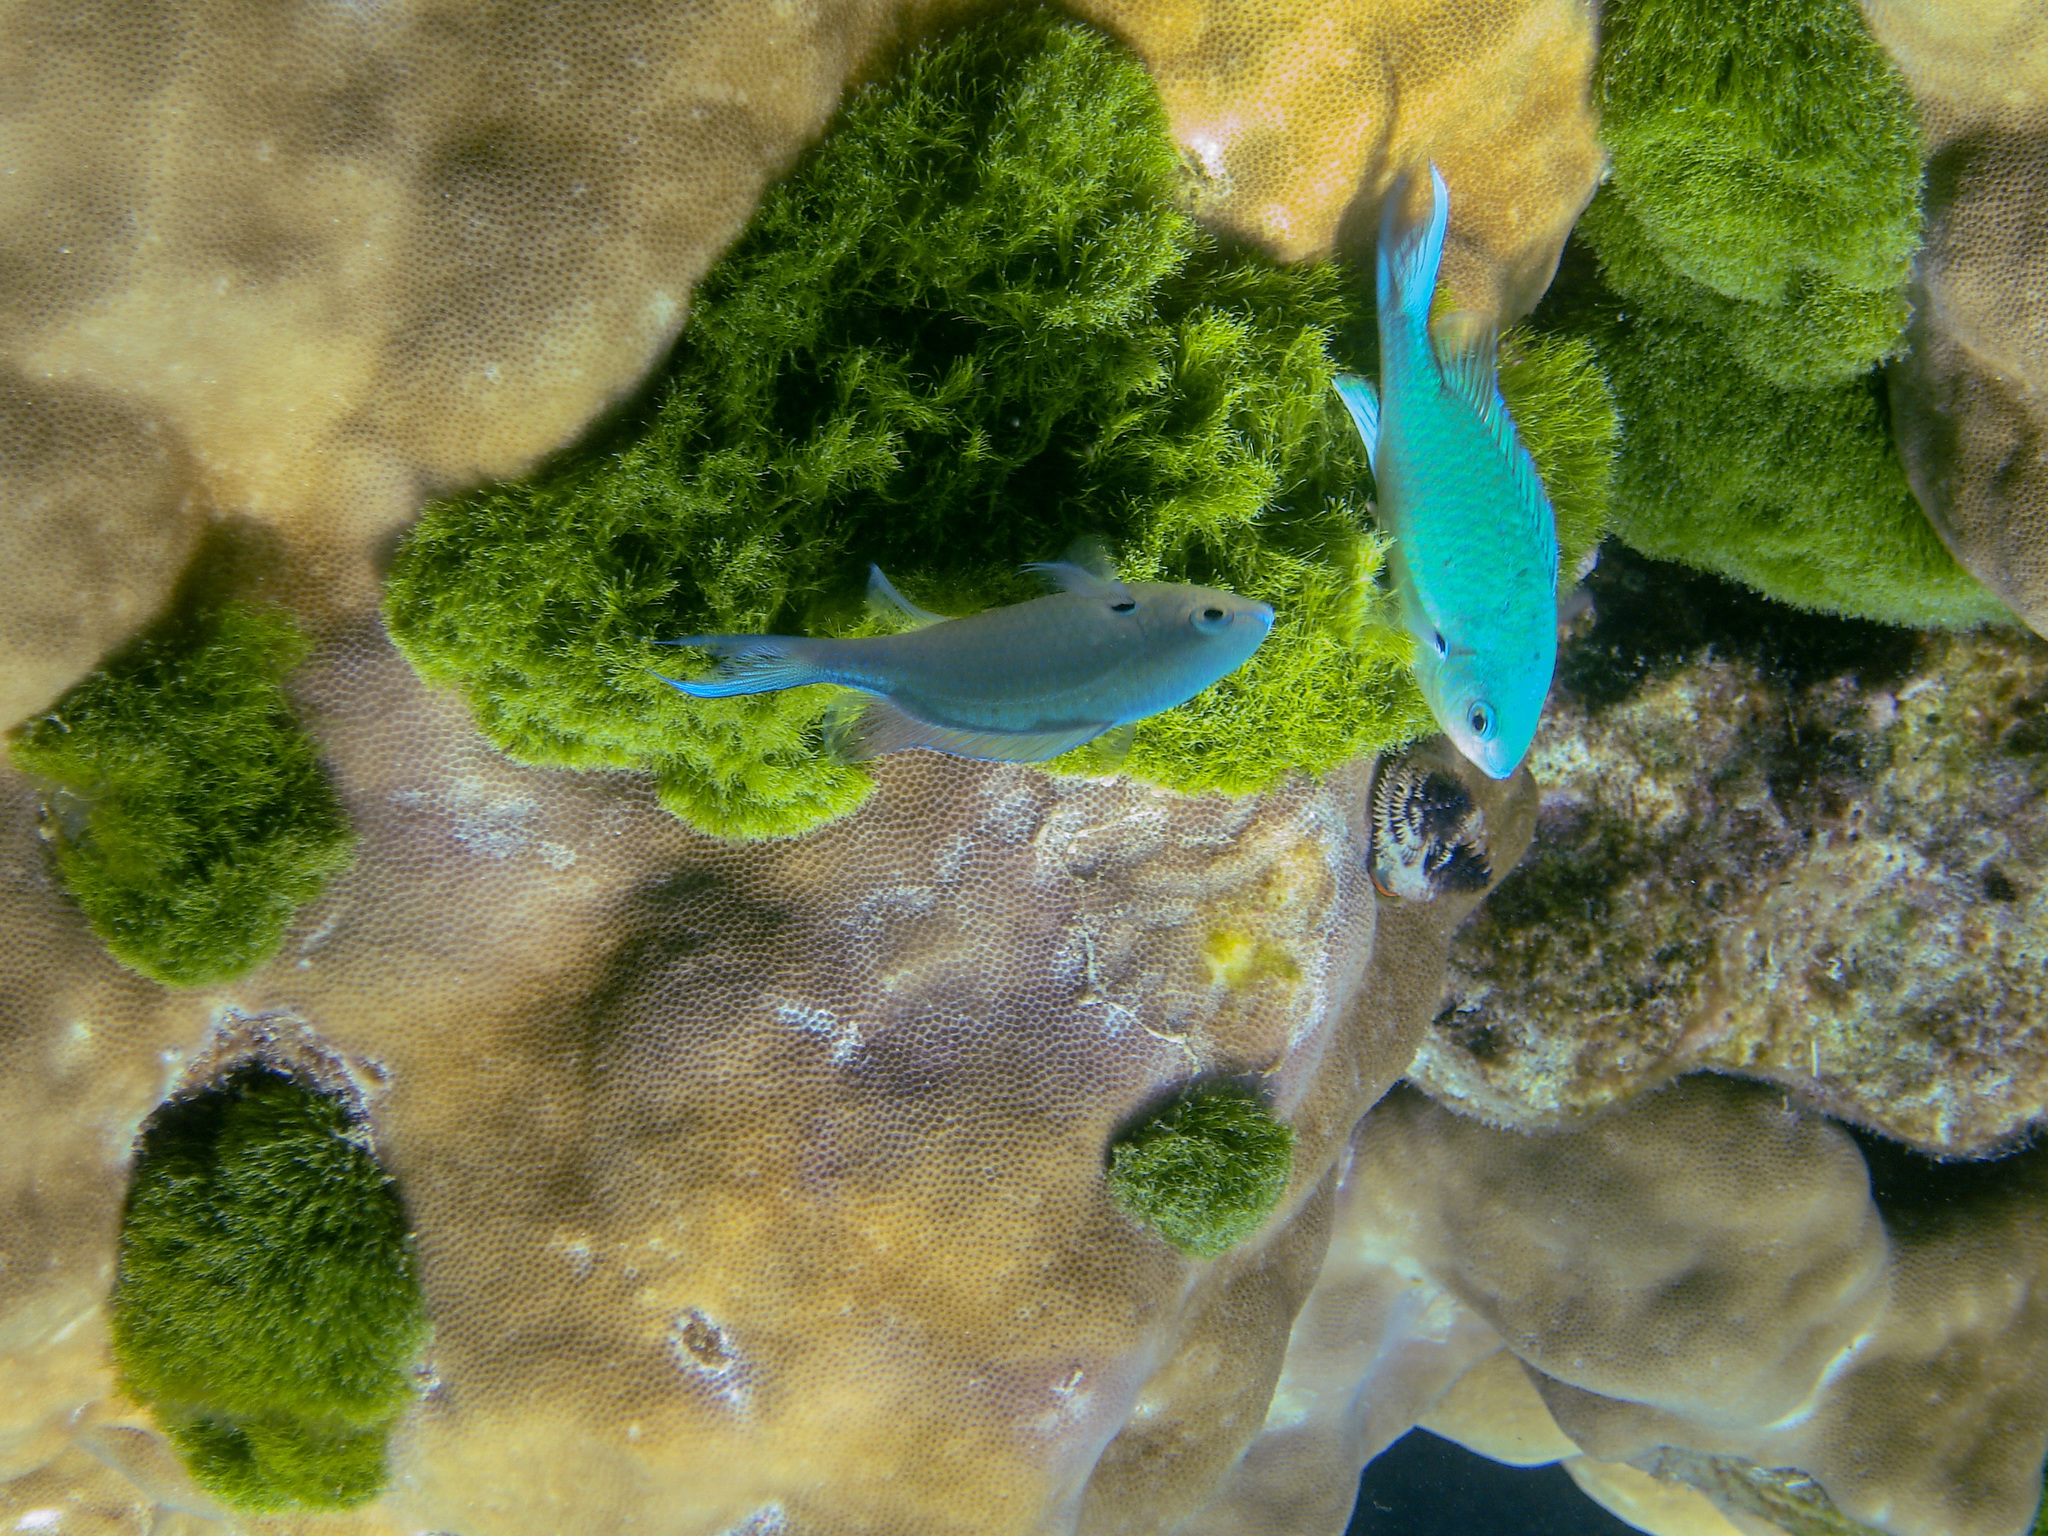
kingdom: Animalia
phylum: Chordata
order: Perciformes
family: Pomacentridae
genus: Chromis
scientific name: Chromis atripectoralis
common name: Black-axil chromis
